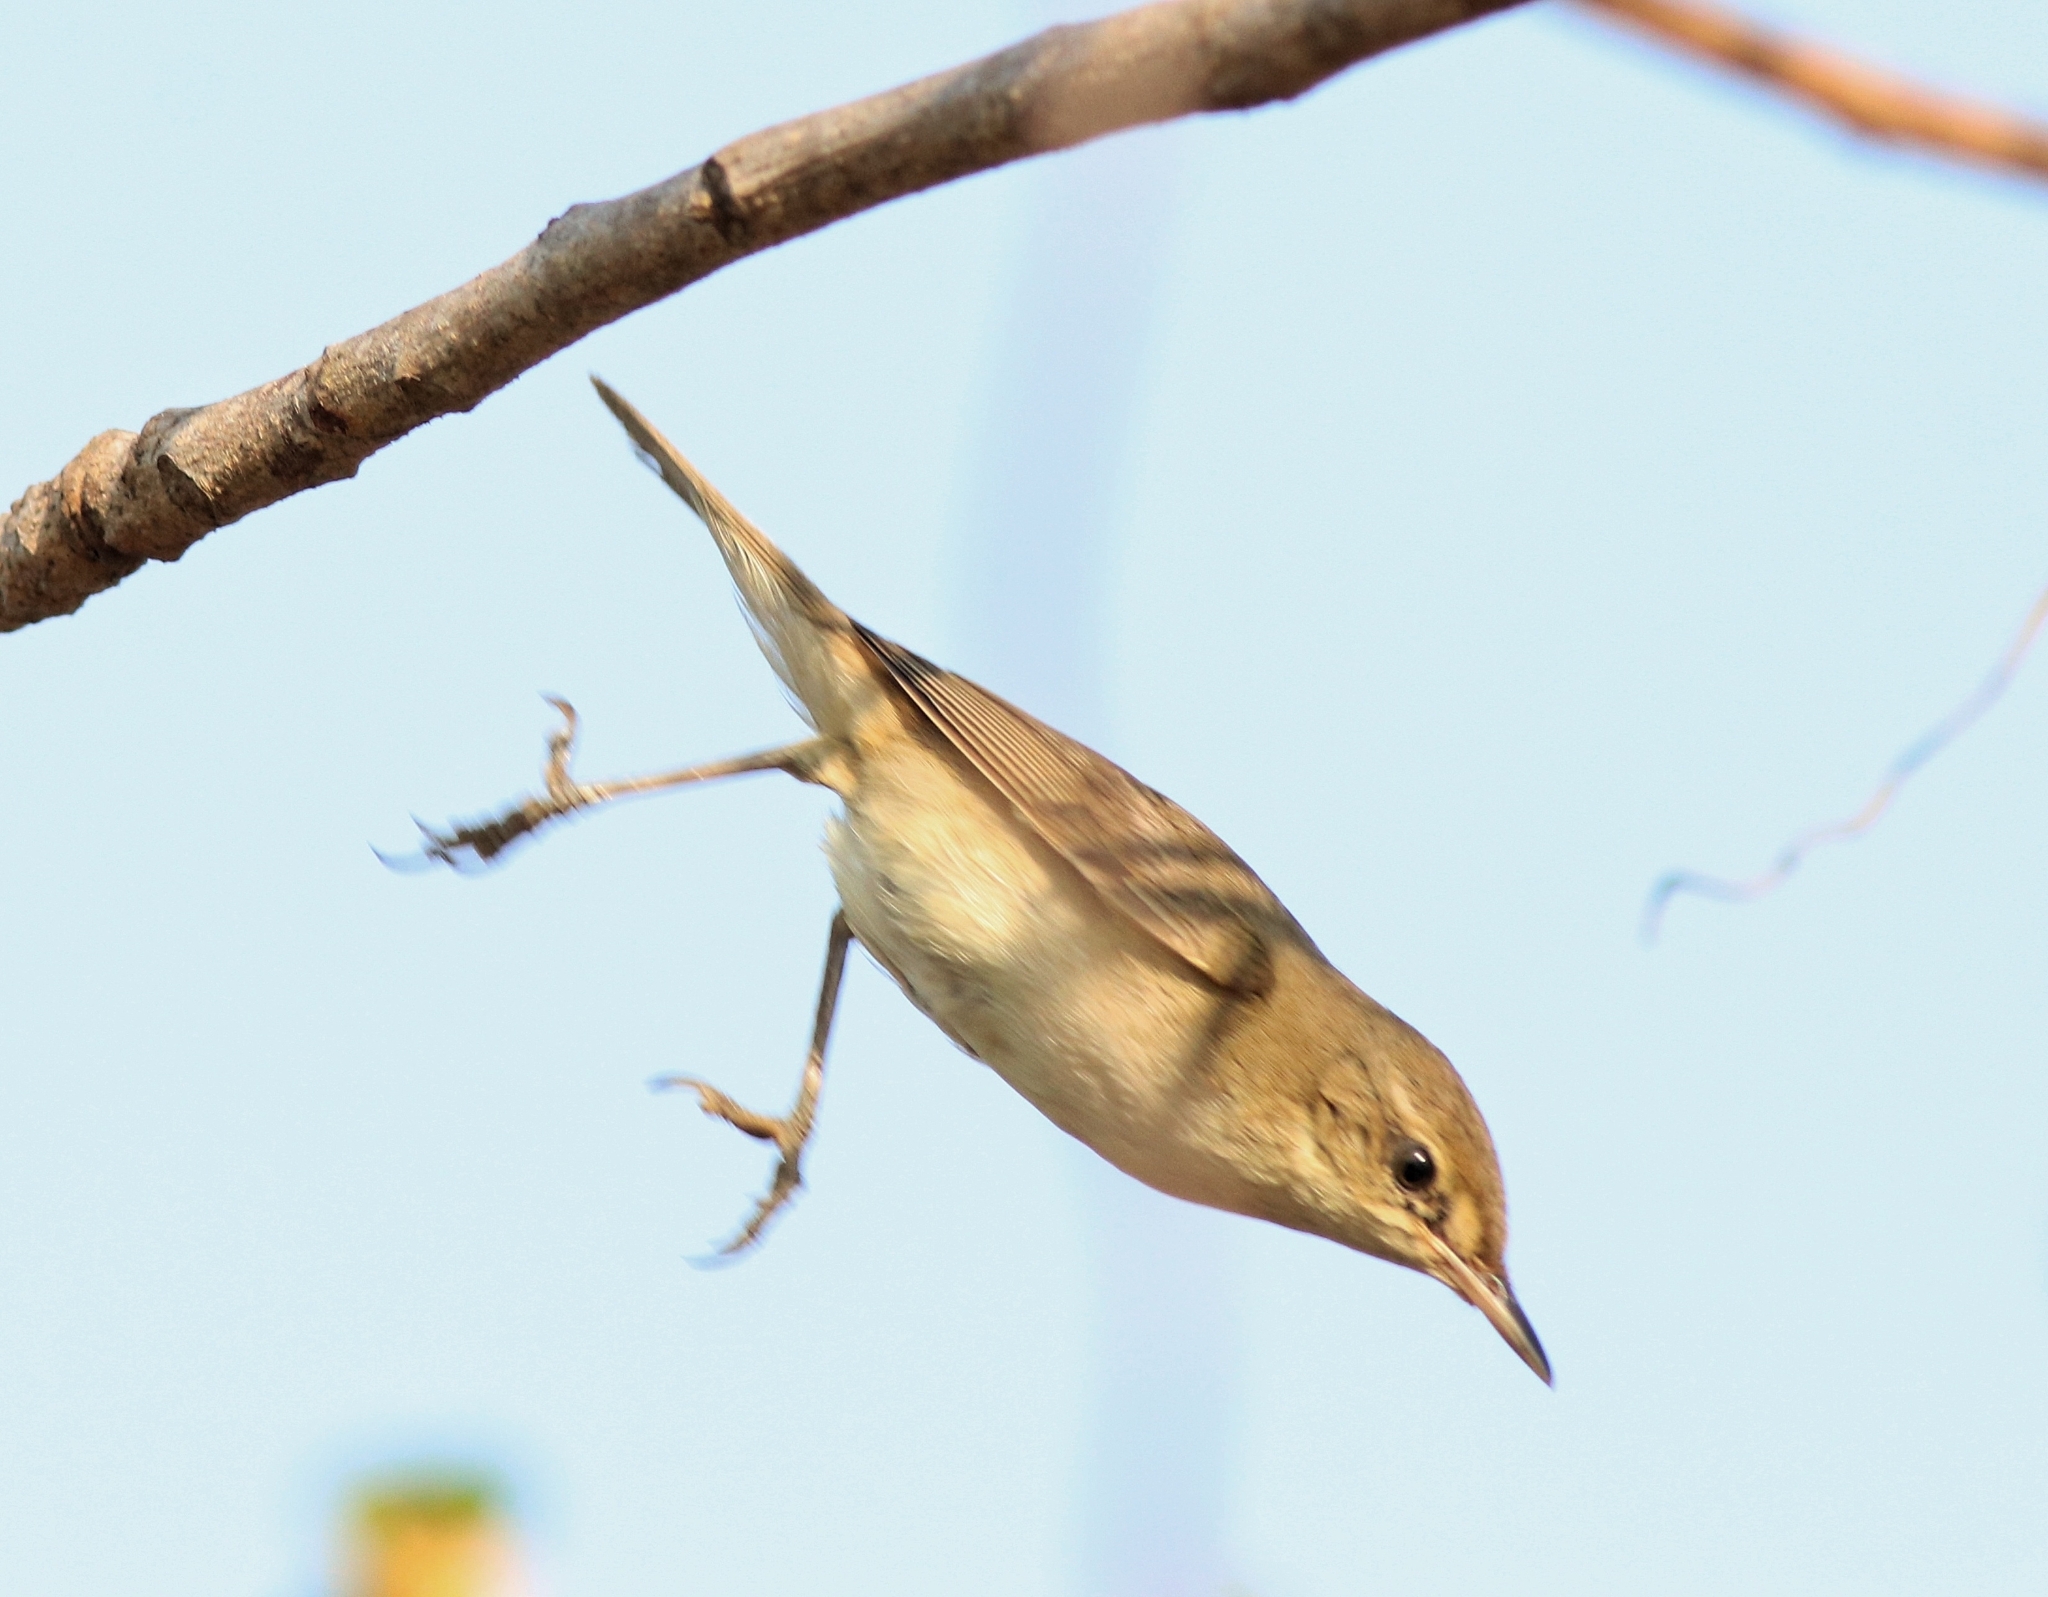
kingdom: Animalia
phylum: Chordata
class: Aves
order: Passeriformes
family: Acrocephalidae
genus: Acrocephalus
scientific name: Acrocephalus dumetorum
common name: Blyth's reed warbler
